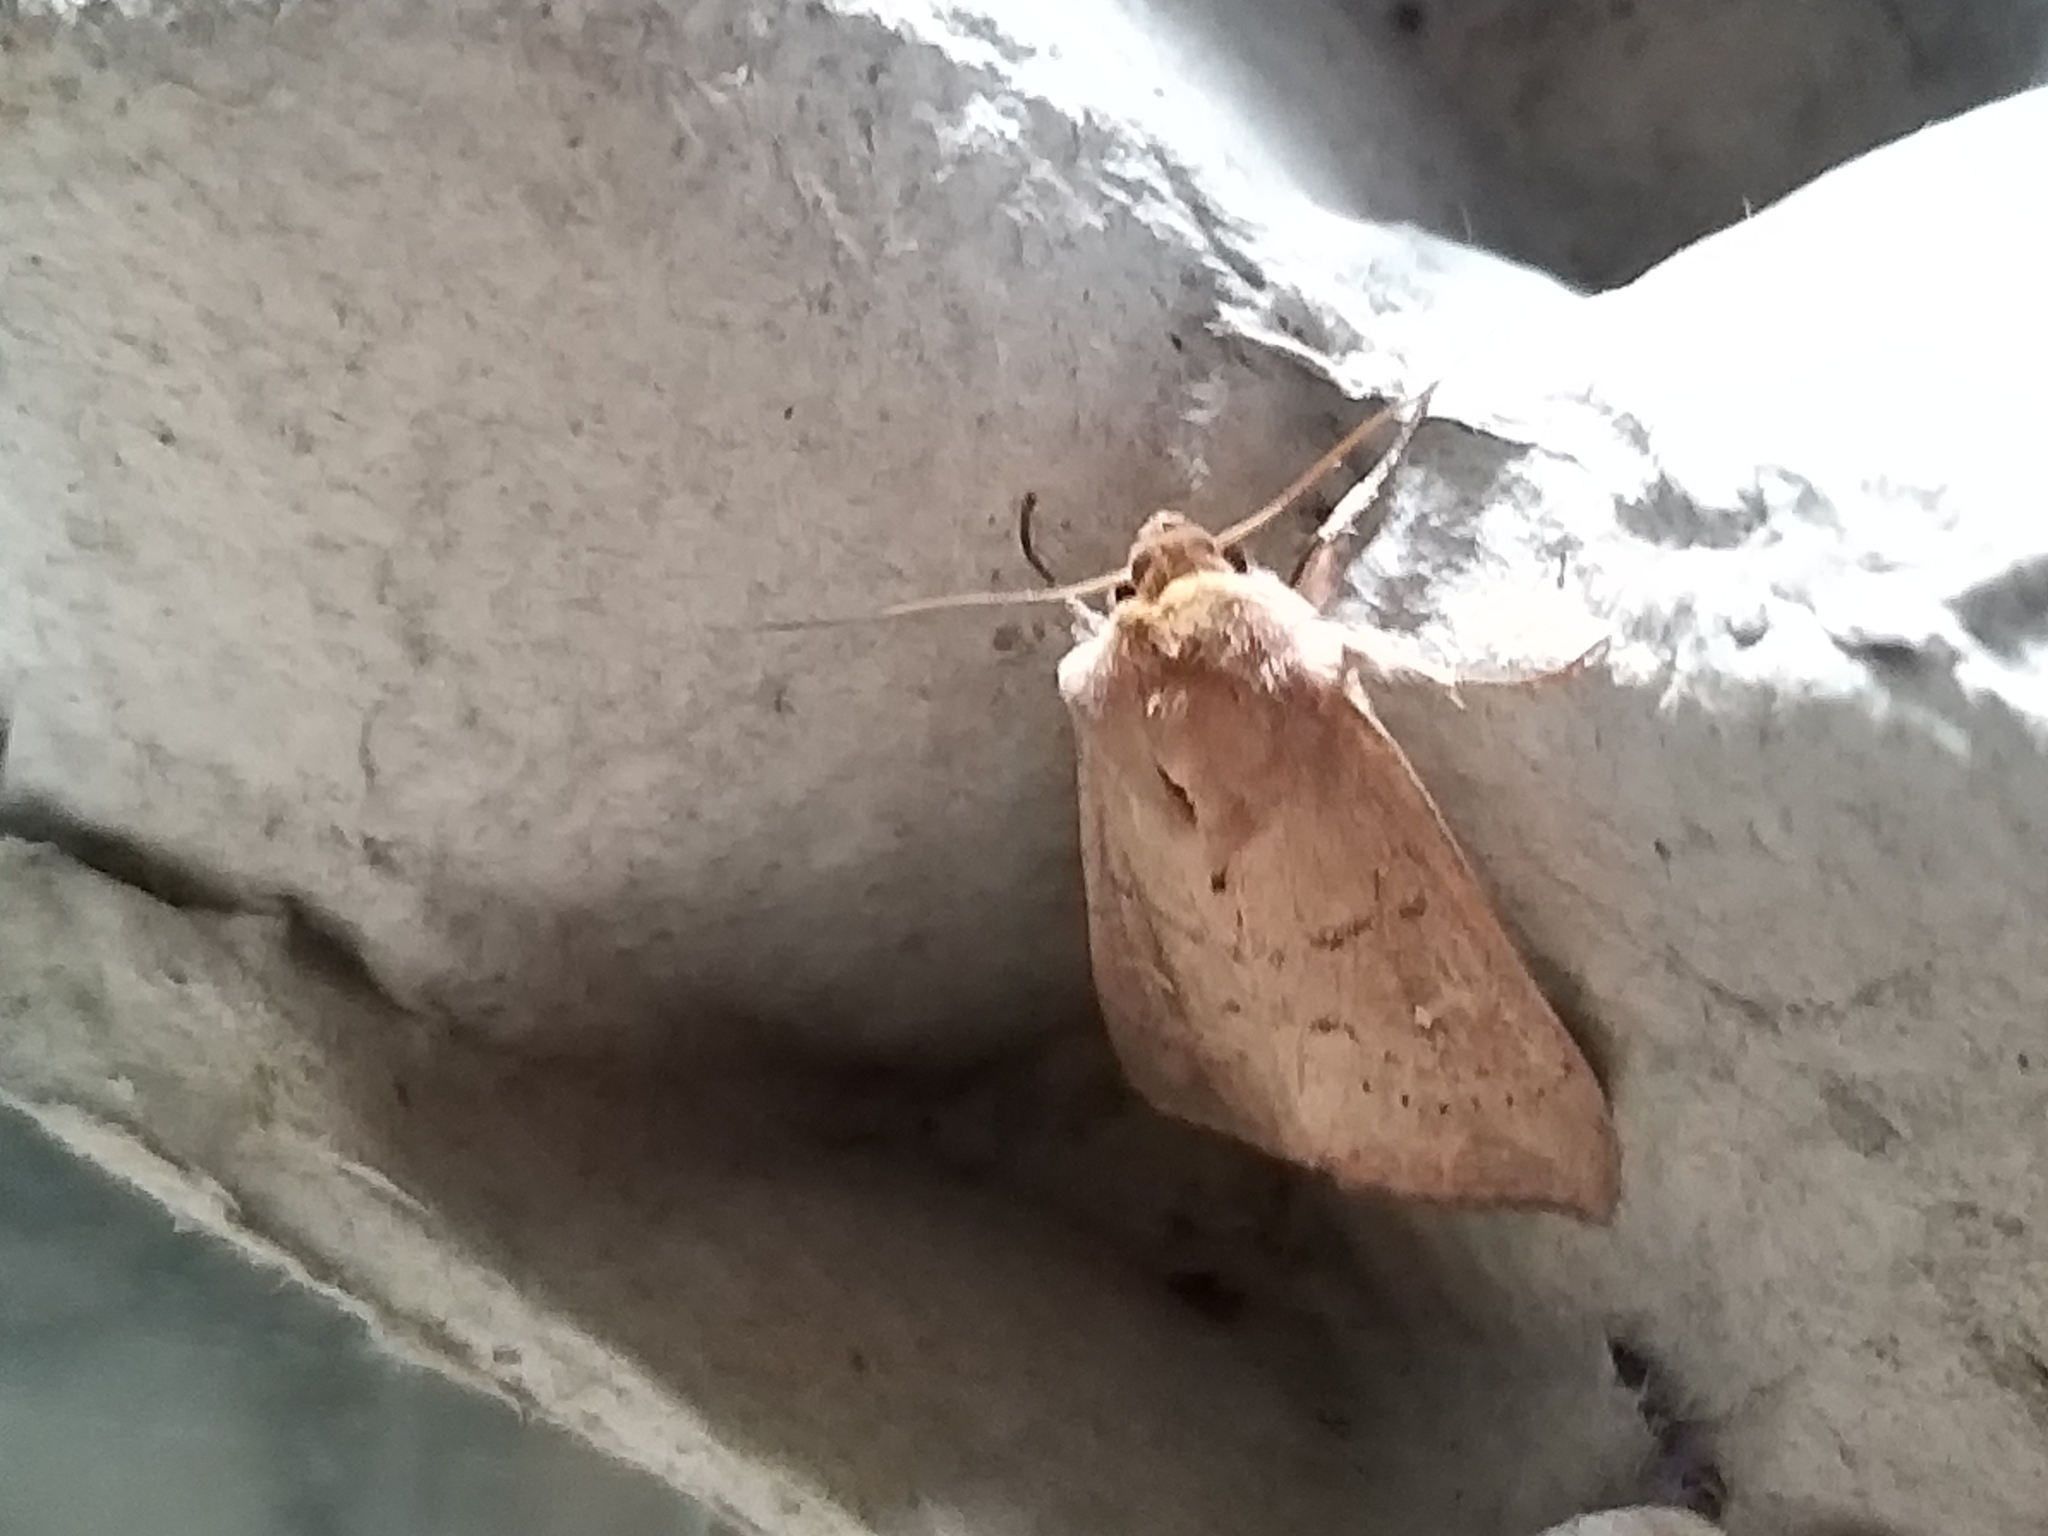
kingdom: Animalia
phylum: Arthropoda
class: Insecta
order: Lepidoptera
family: Noctuidae
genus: Mythimna
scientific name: Mythimna ferrago
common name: Clay
